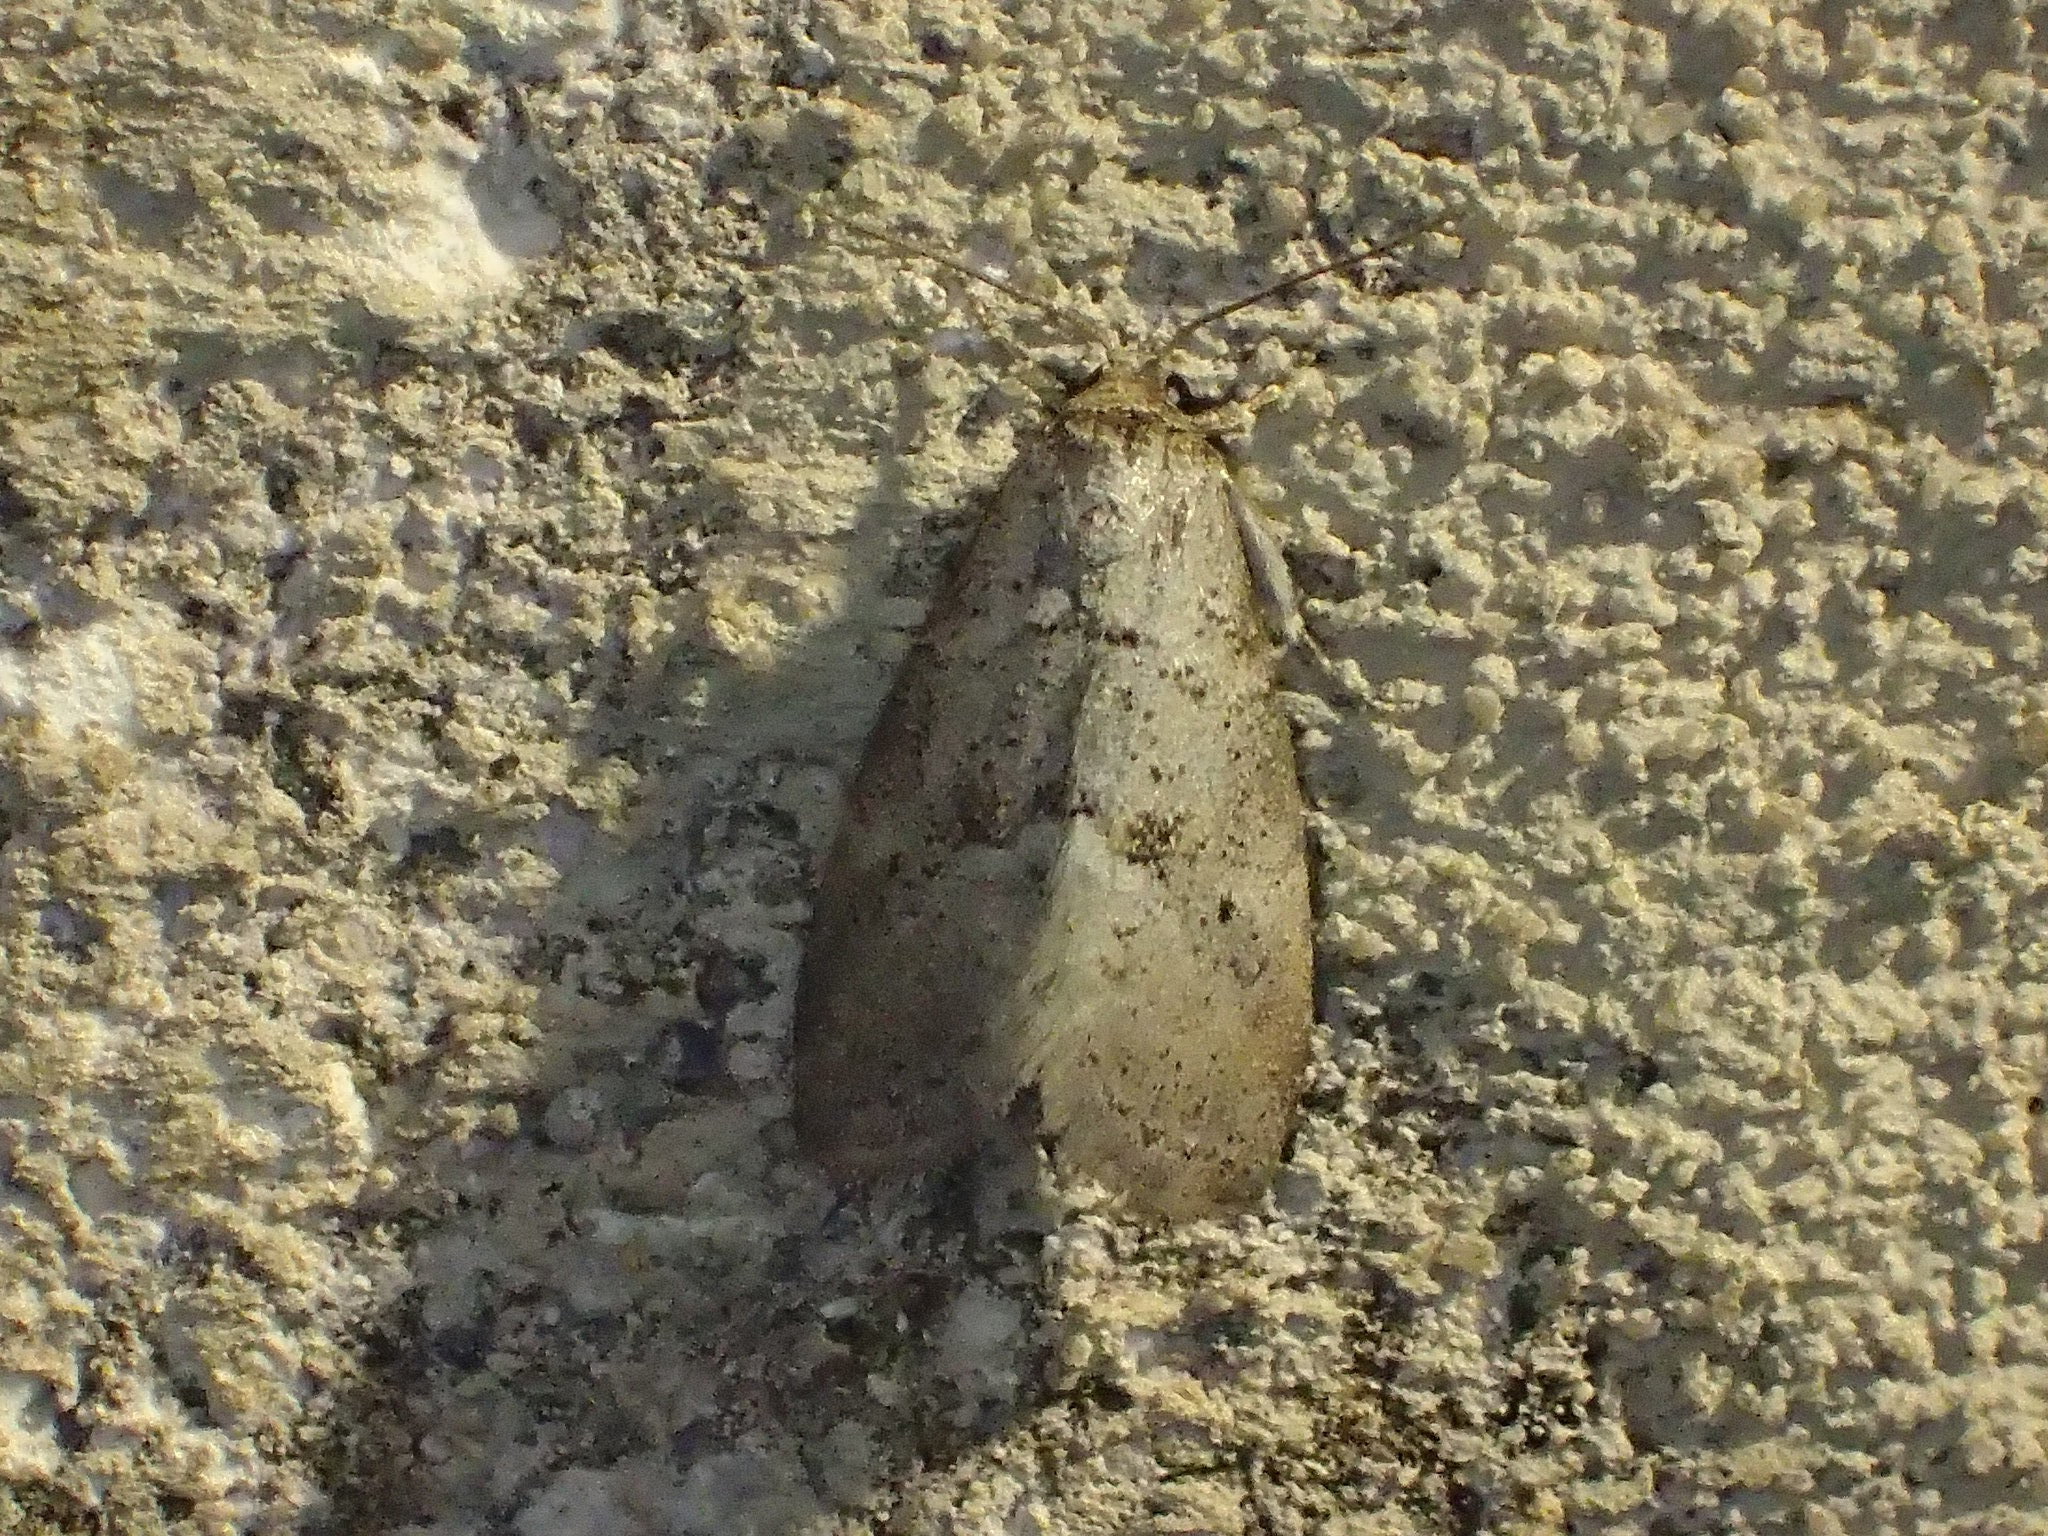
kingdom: Animalia
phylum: Arthropoda
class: Insecta
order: Lepidoptera
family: Erebidae
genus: Hyperstrotia
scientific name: Hyperstrotia pervertens
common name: Dotted graylet
